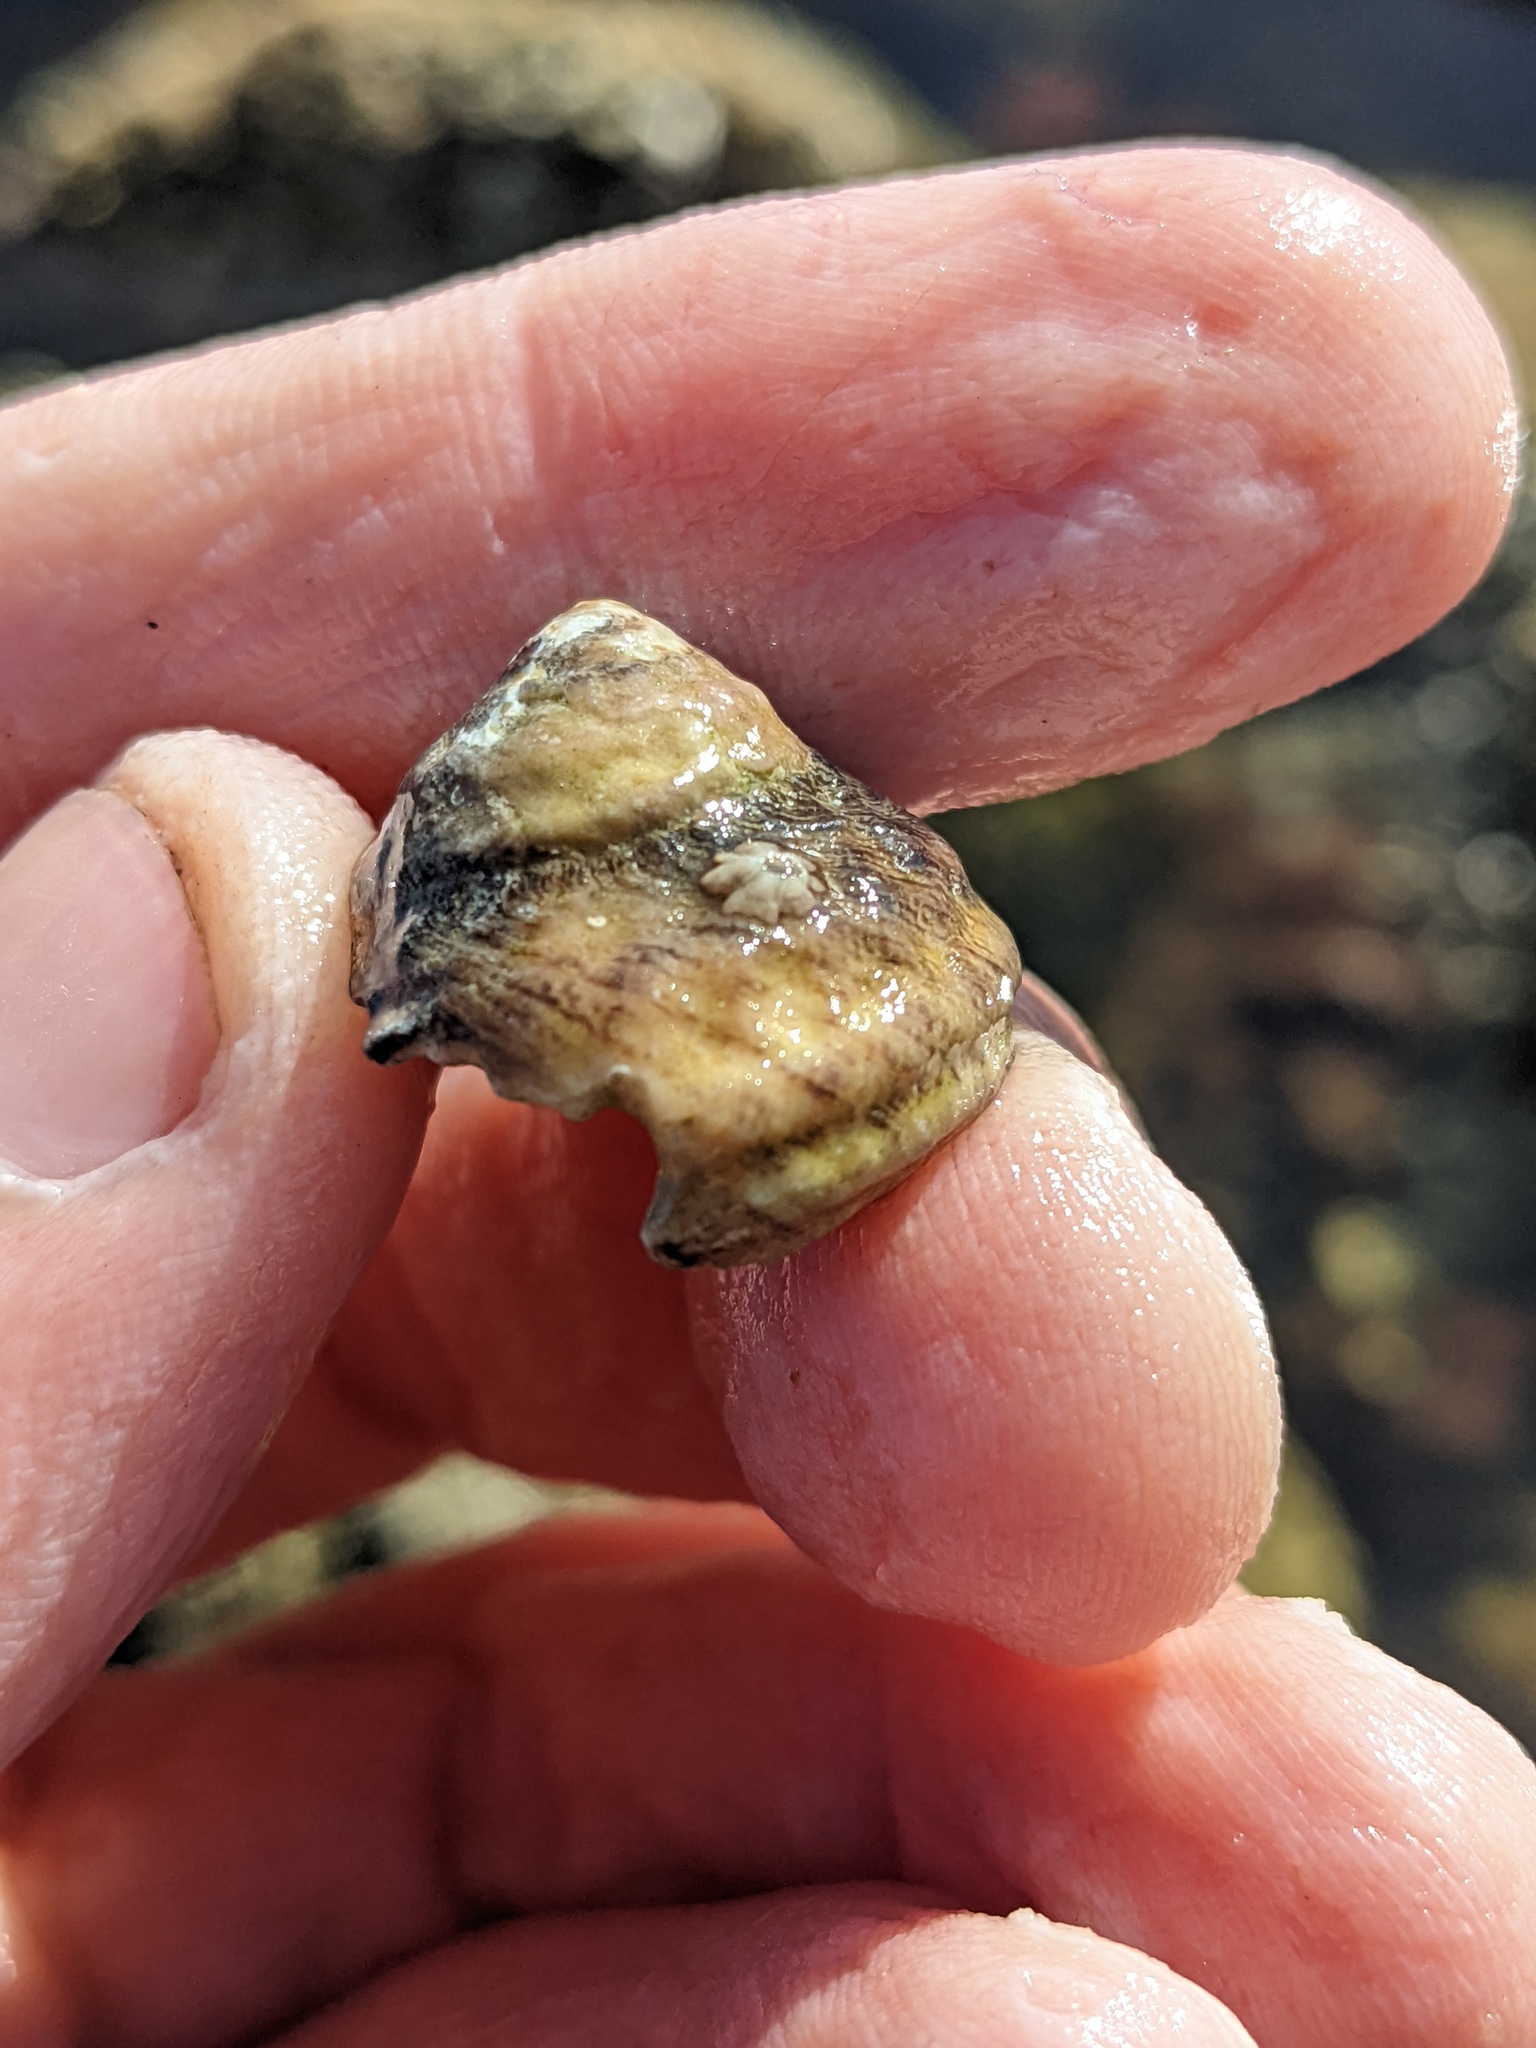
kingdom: Animalia
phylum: Mollusca
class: Gastropoda
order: Trochida
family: Tegulidae
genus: Tegula
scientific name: Tegula aureotincta
